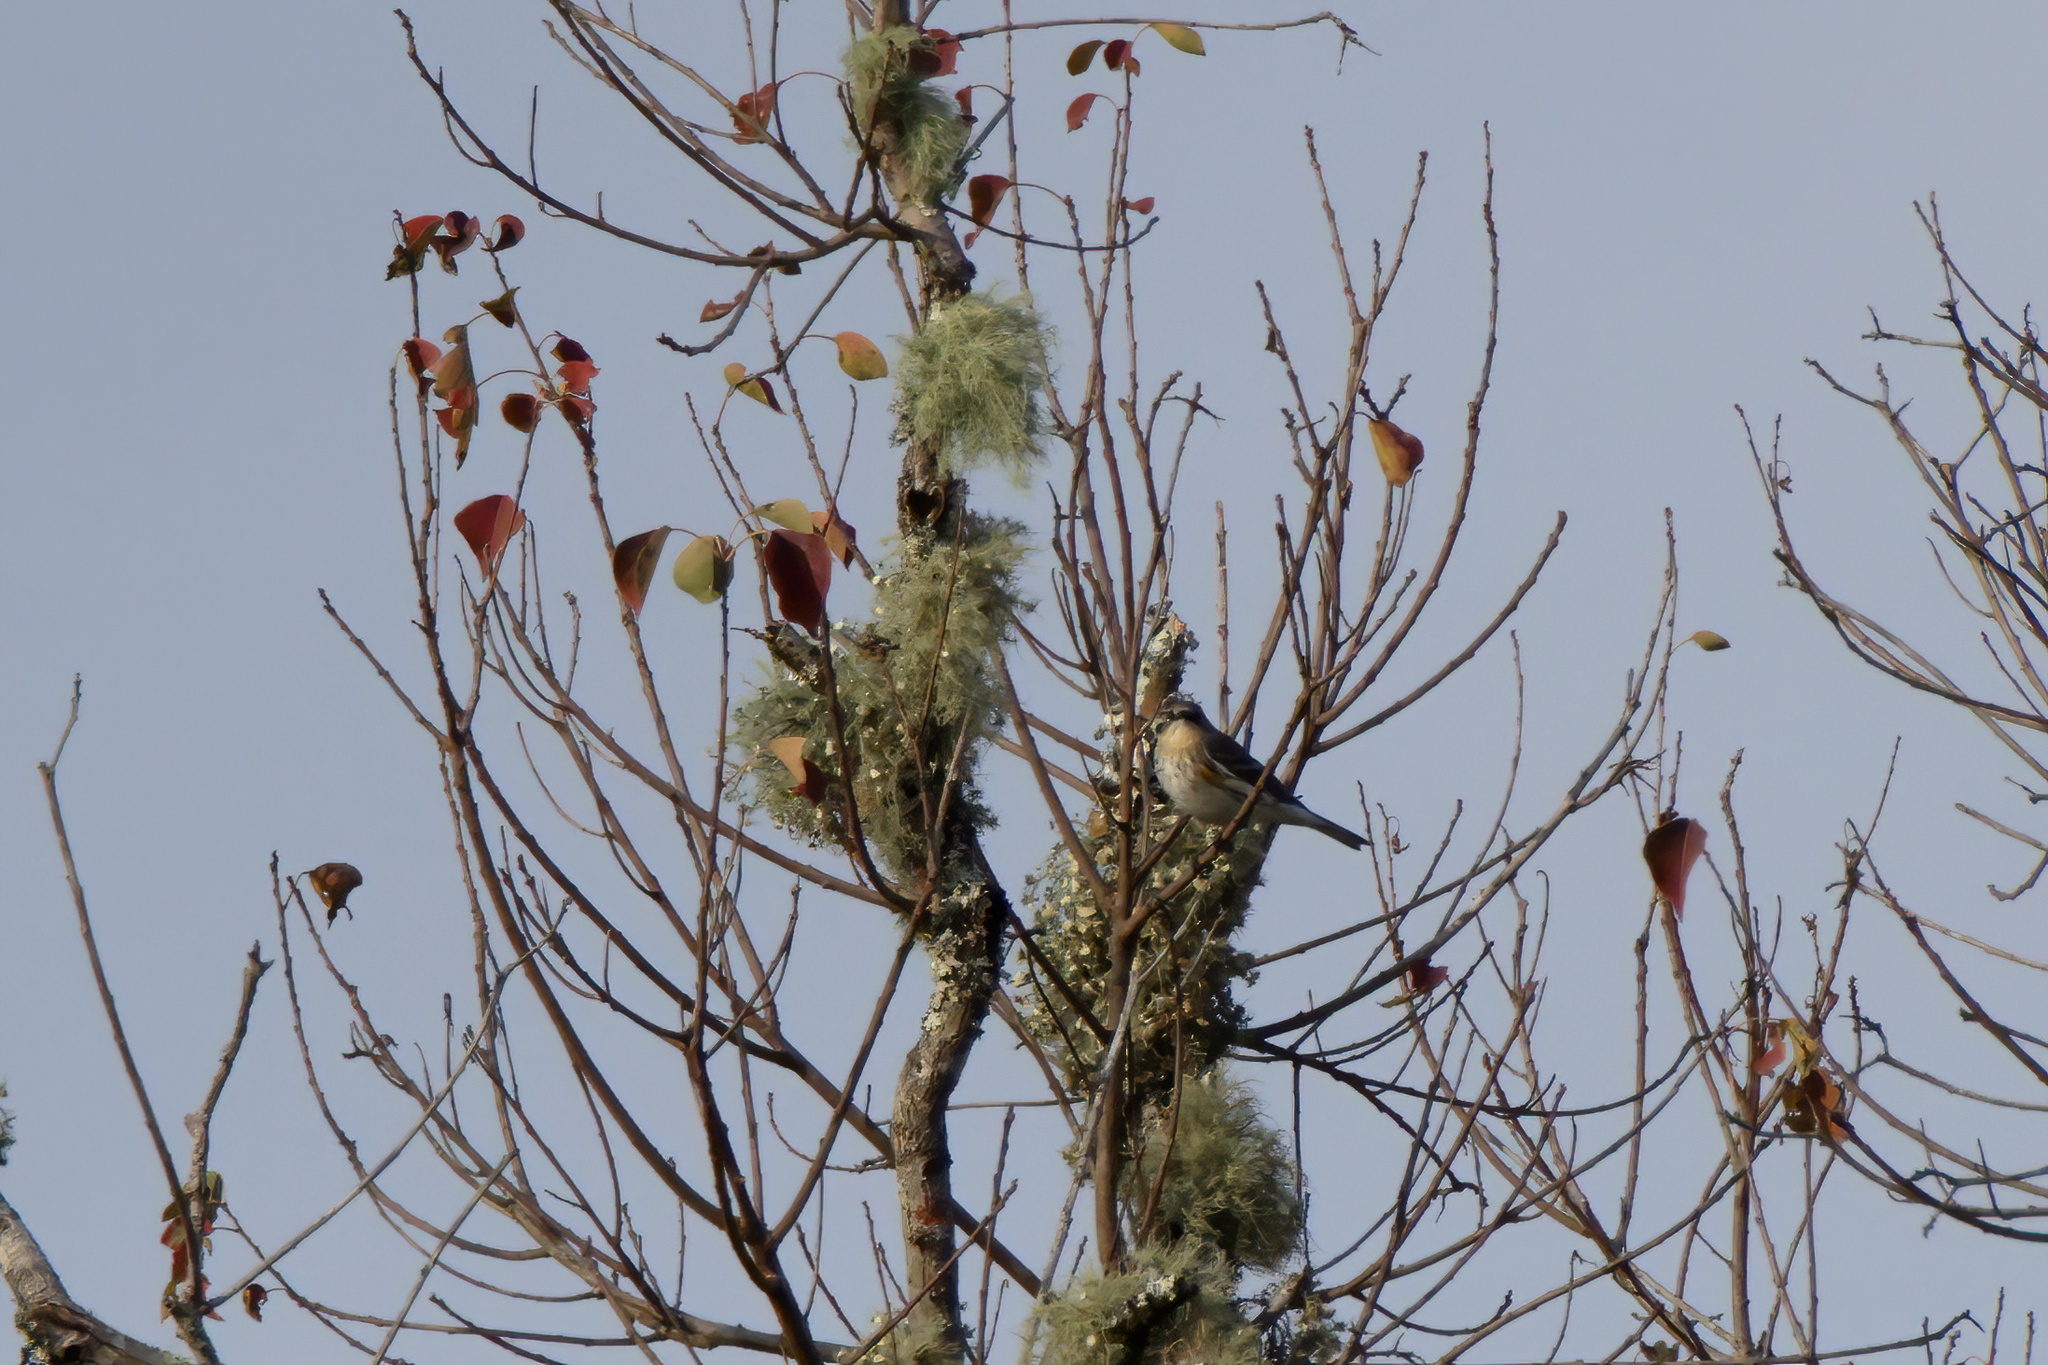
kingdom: Animalia
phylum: Chordata
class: Aves
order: Passeriformes
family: Parulidae
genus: Setophaga
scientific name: Setophaga coronata
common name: Myrtle warbler
